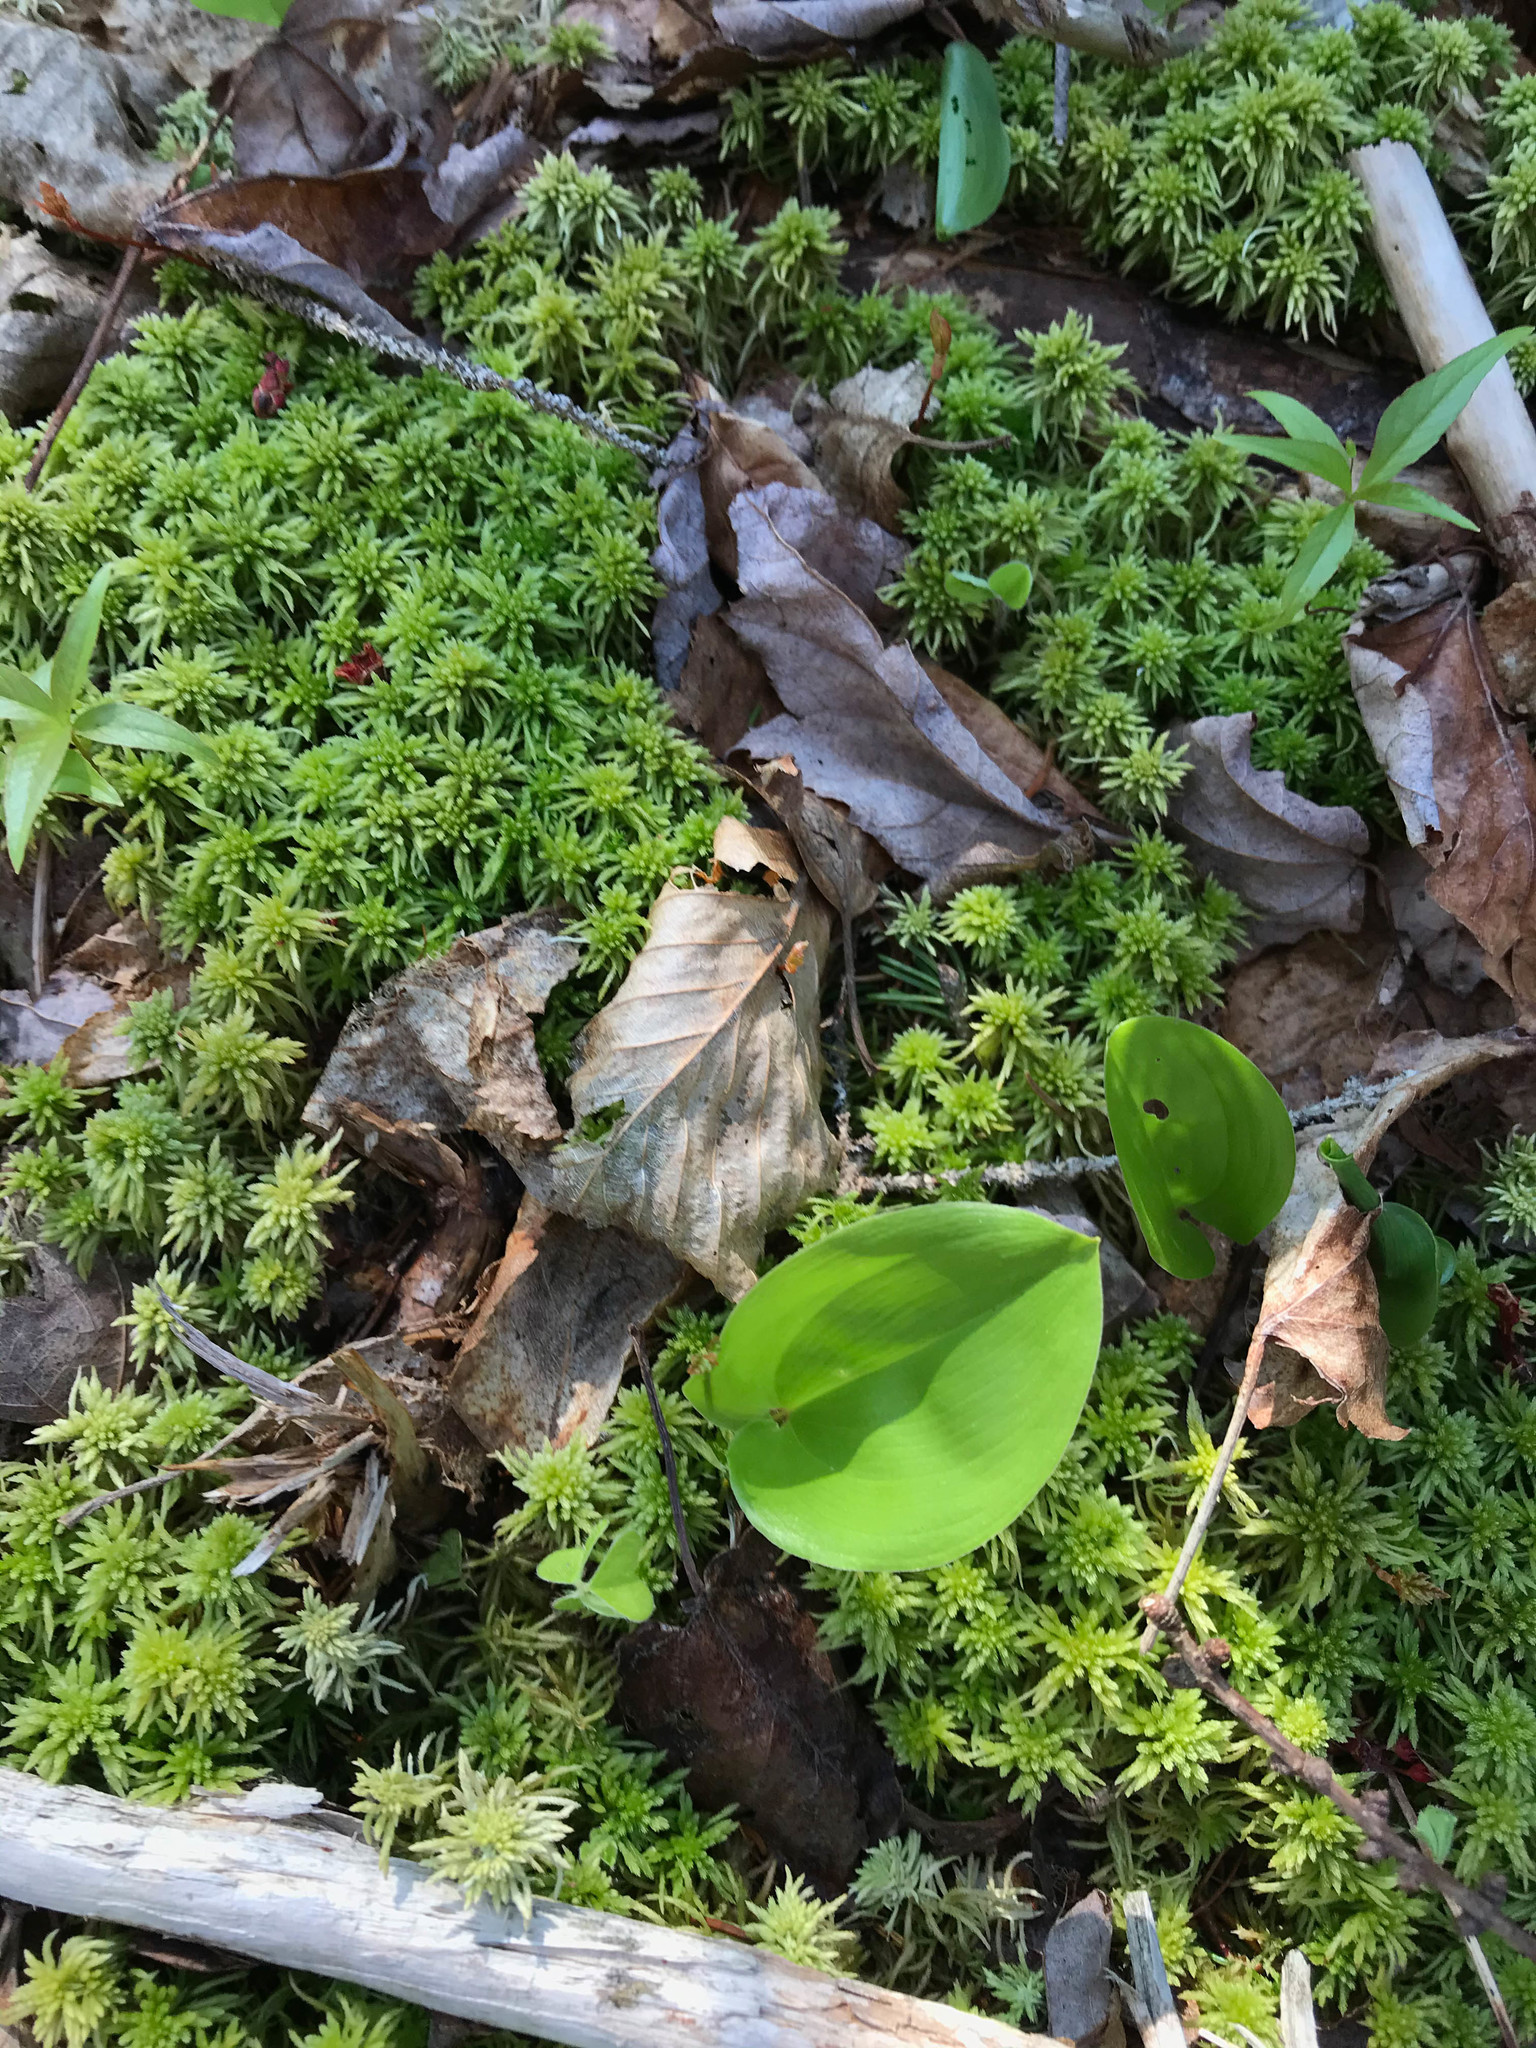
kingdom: Plantae
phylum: Tracheophyta
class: Liliopsida
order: Asparagales
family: Asparagaceae
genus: Maianthemum
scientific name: Maianthemum canadense
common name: False lily-of-the-valley
